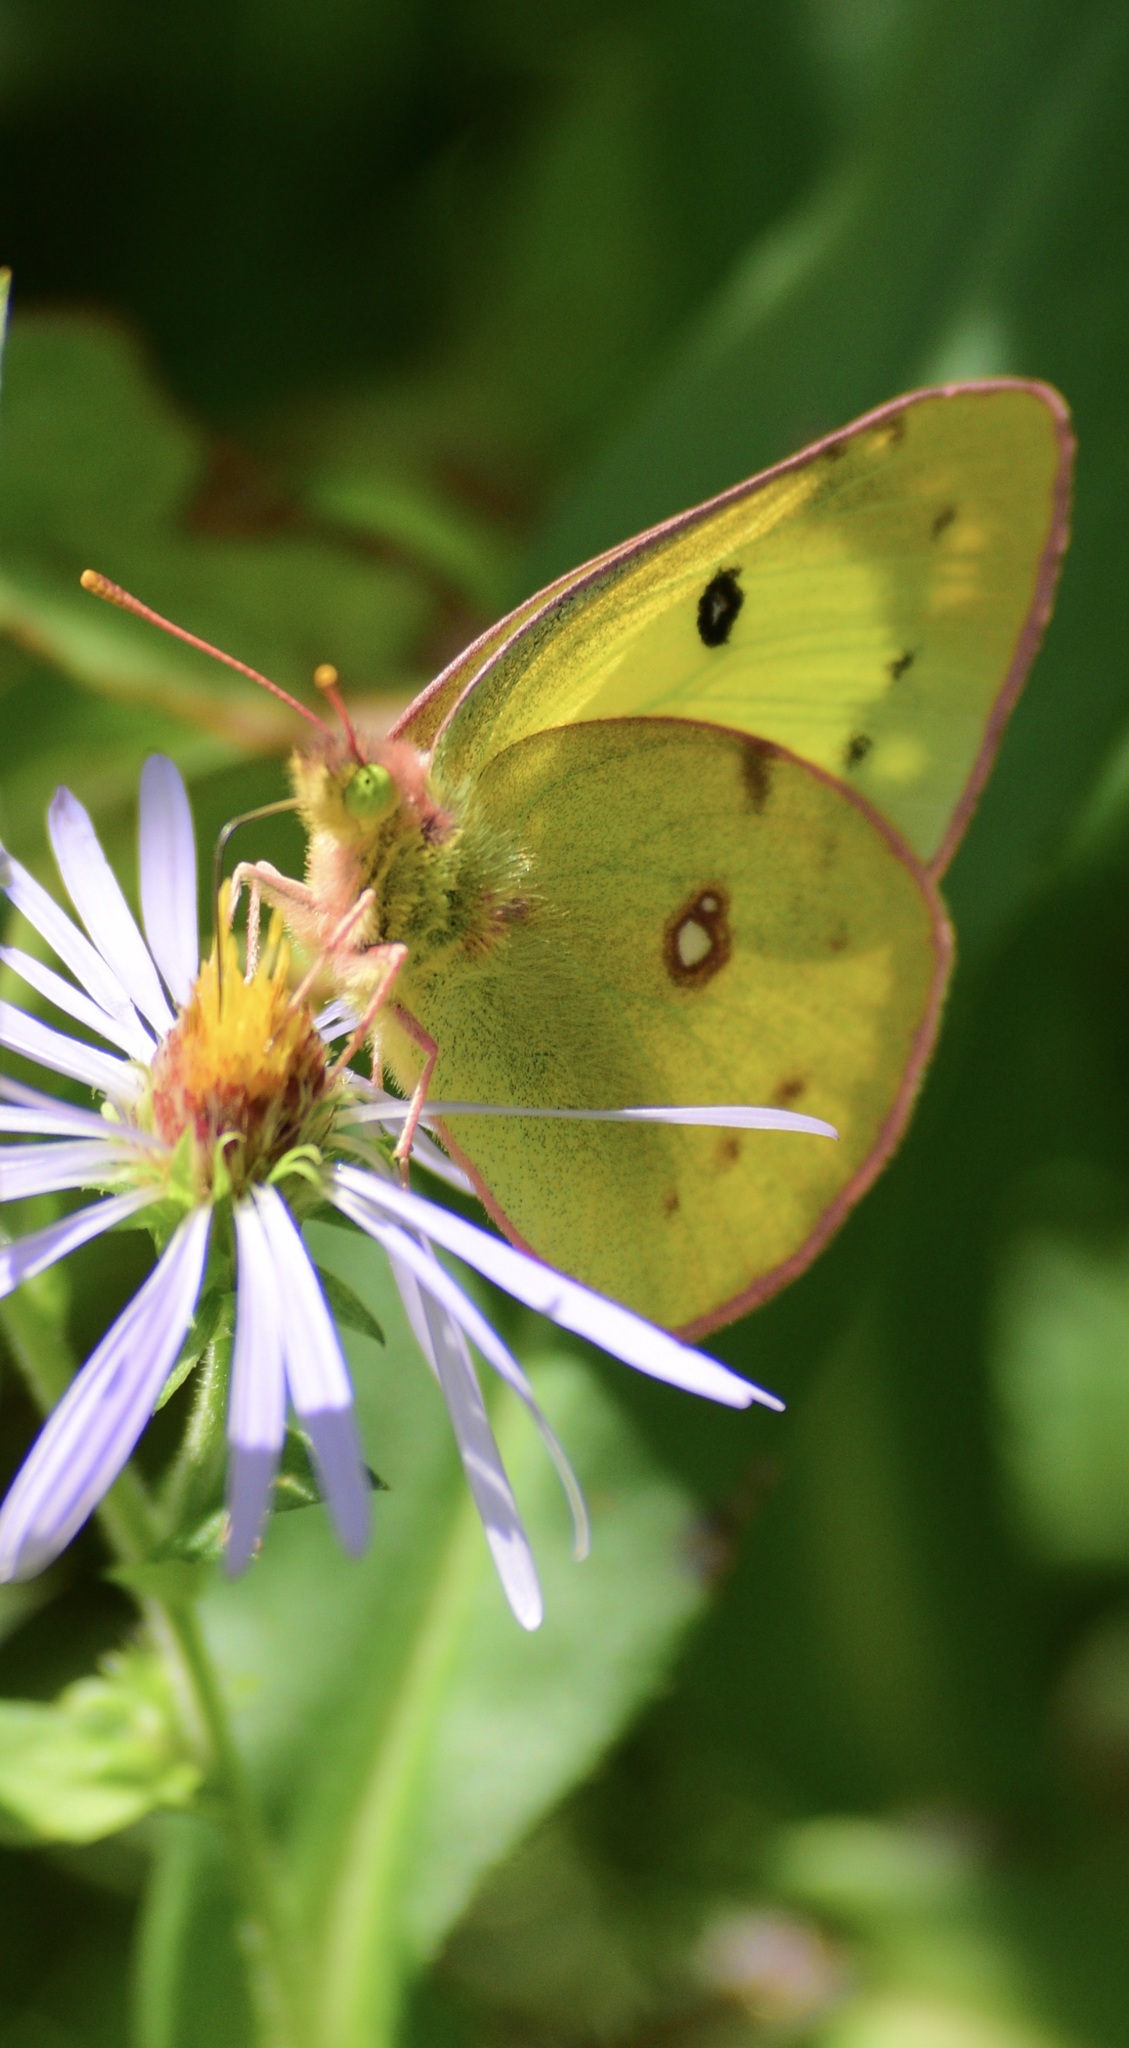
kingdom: Animalia
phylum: Arthropoda
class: Insecta
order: Lepidoptera
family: Pieridae
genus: Colias
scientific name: Colias philodice
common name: Clouded sulphur
